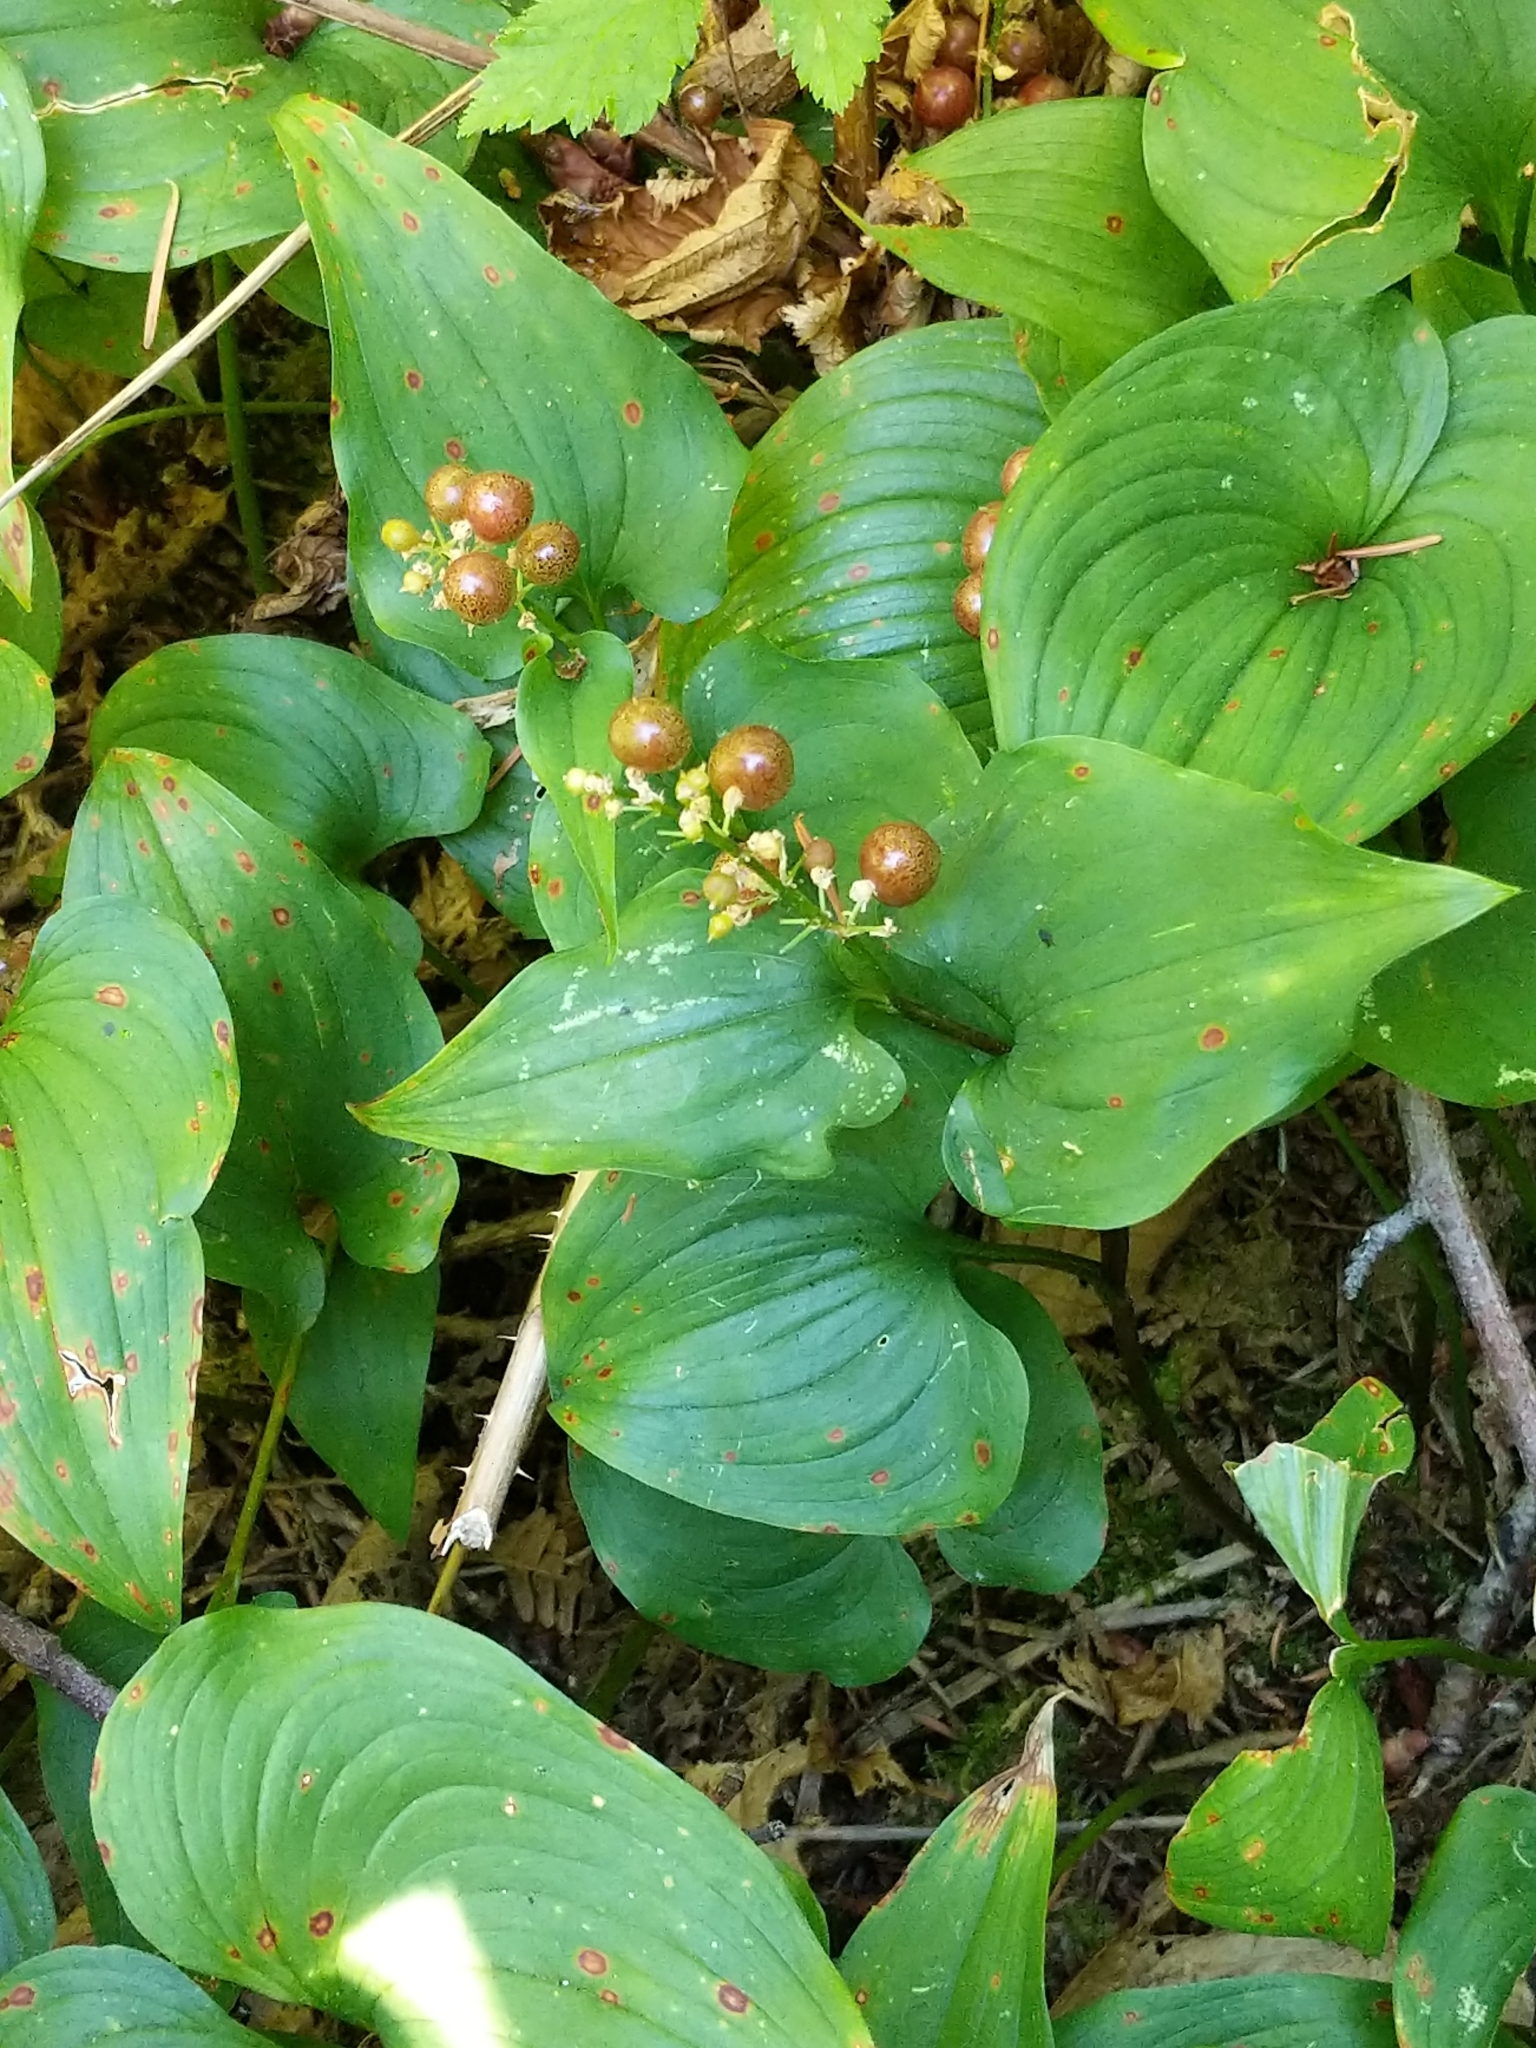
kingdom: Plantae
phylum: Tracheophyta
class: Liliopsida
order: Asparagales
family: Asparagaceae
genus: Maianthemum
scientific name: Maianthemum dilatatum
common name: False lily-of-the-valley
